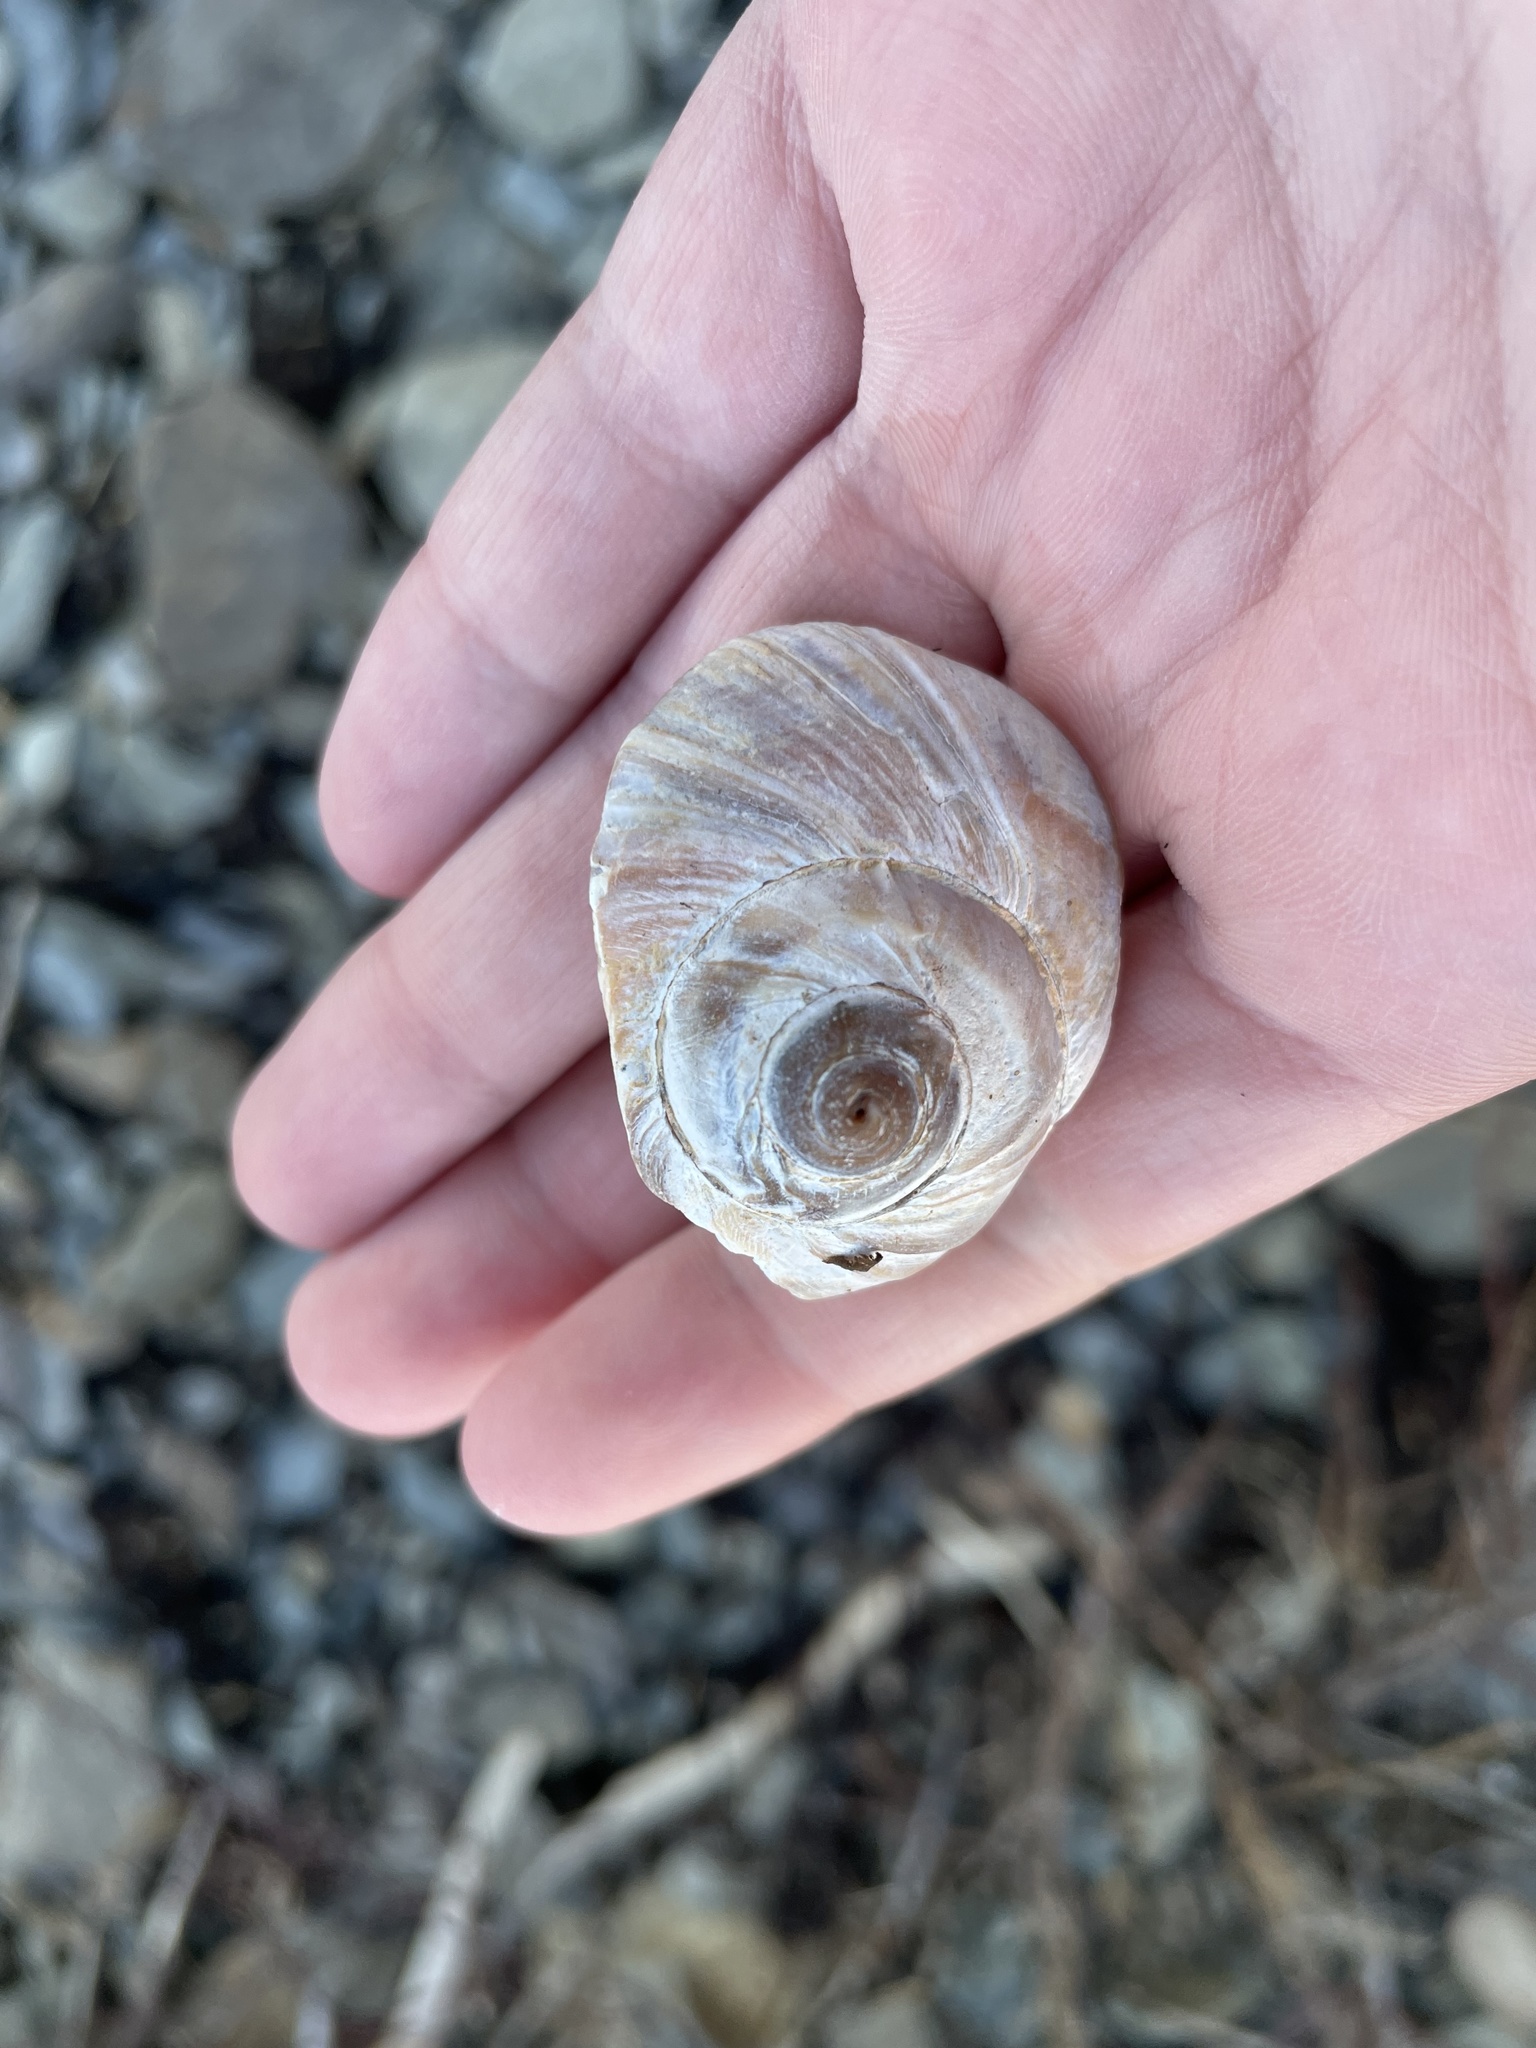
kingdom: Animalia
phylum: Mollusca
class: Gastropoda
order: Littorinimorpha
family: Naticidae
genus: Euspira
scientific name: Euspira heros
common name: Common northern moonsnail
